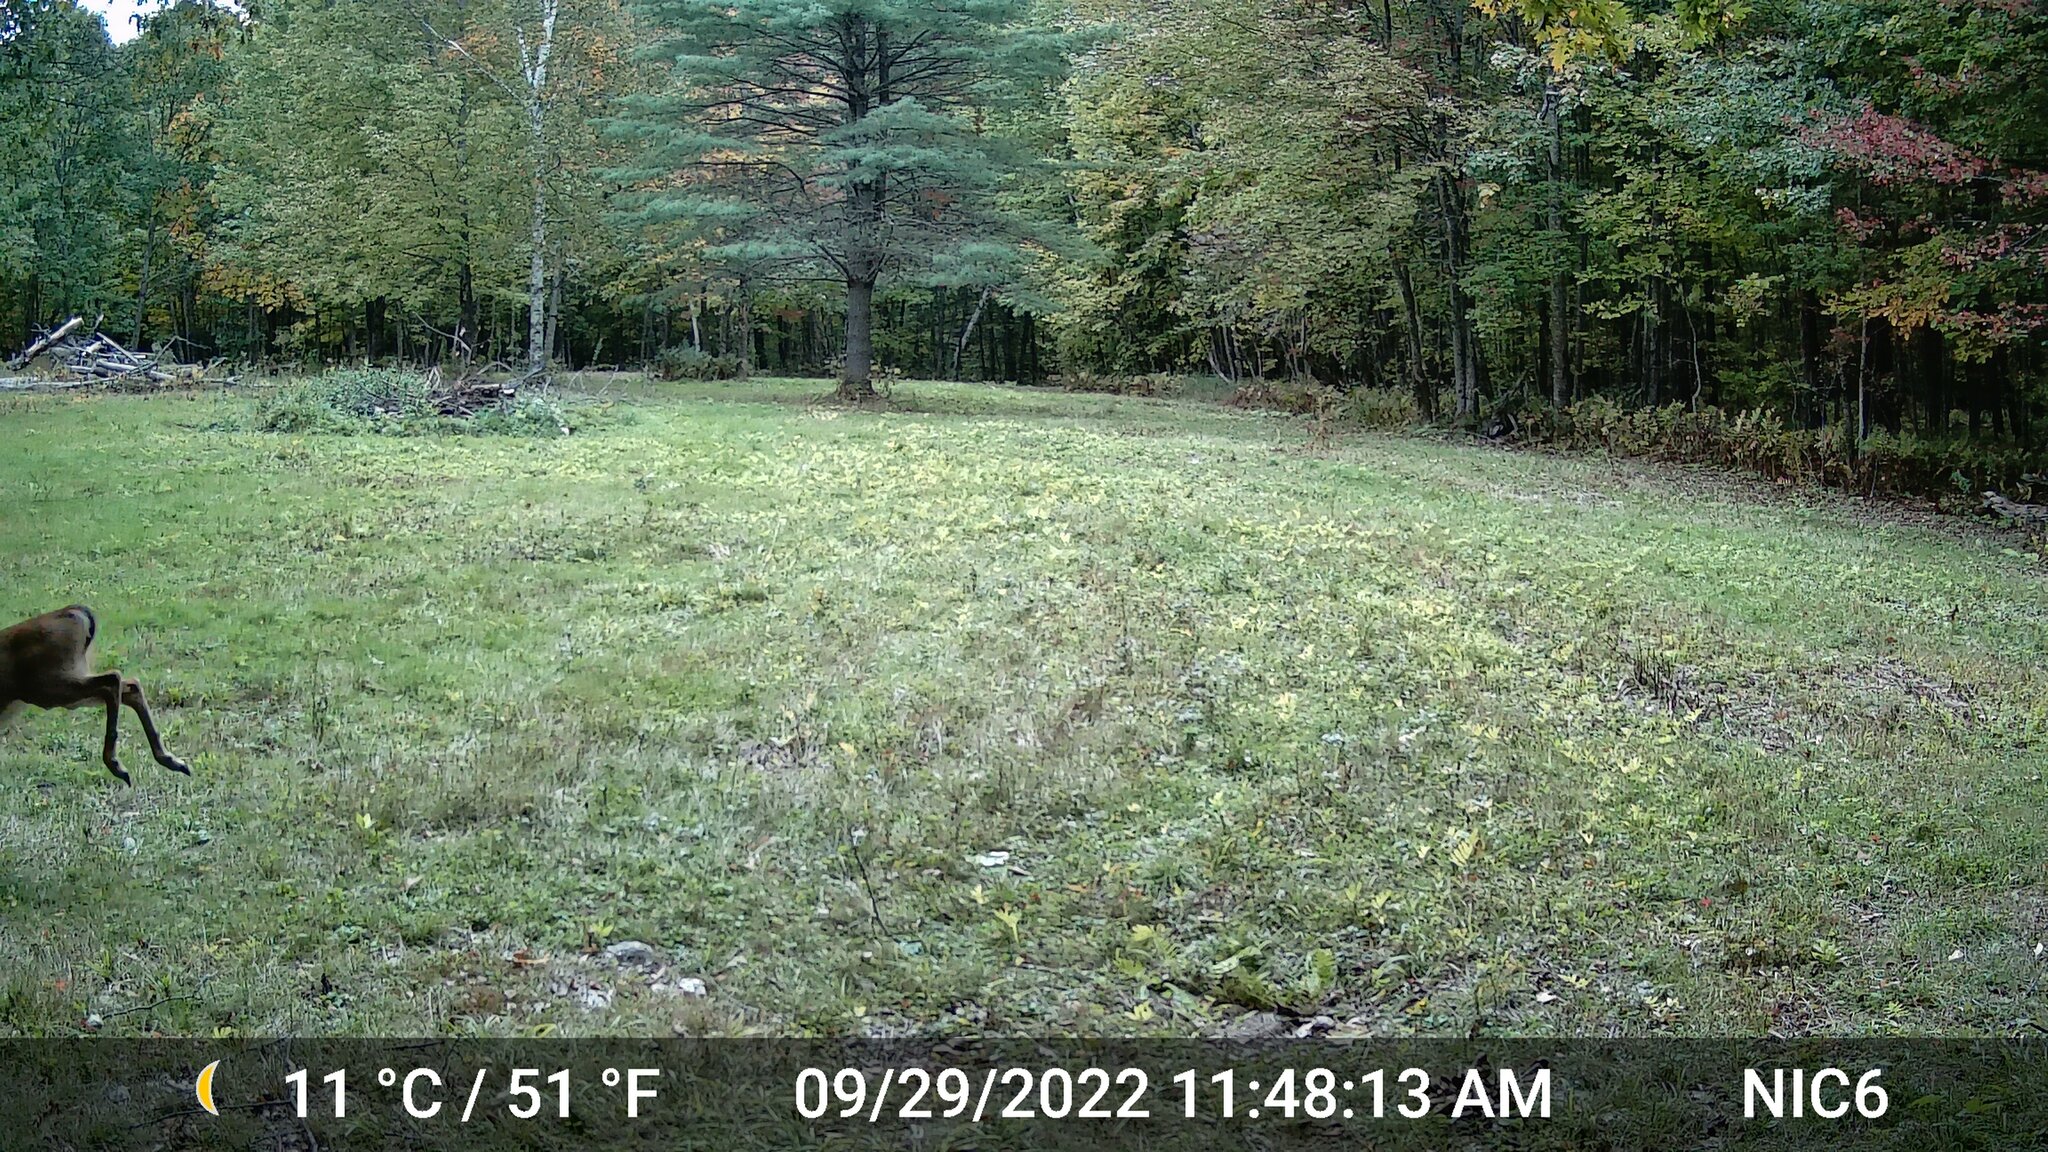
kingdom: Animalia
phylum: Chordata
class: Mammalia
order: Artiodactyla
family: Cervidae
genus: Odocoileus
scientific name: Odocoileus virginianus
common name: White-tailed deer
